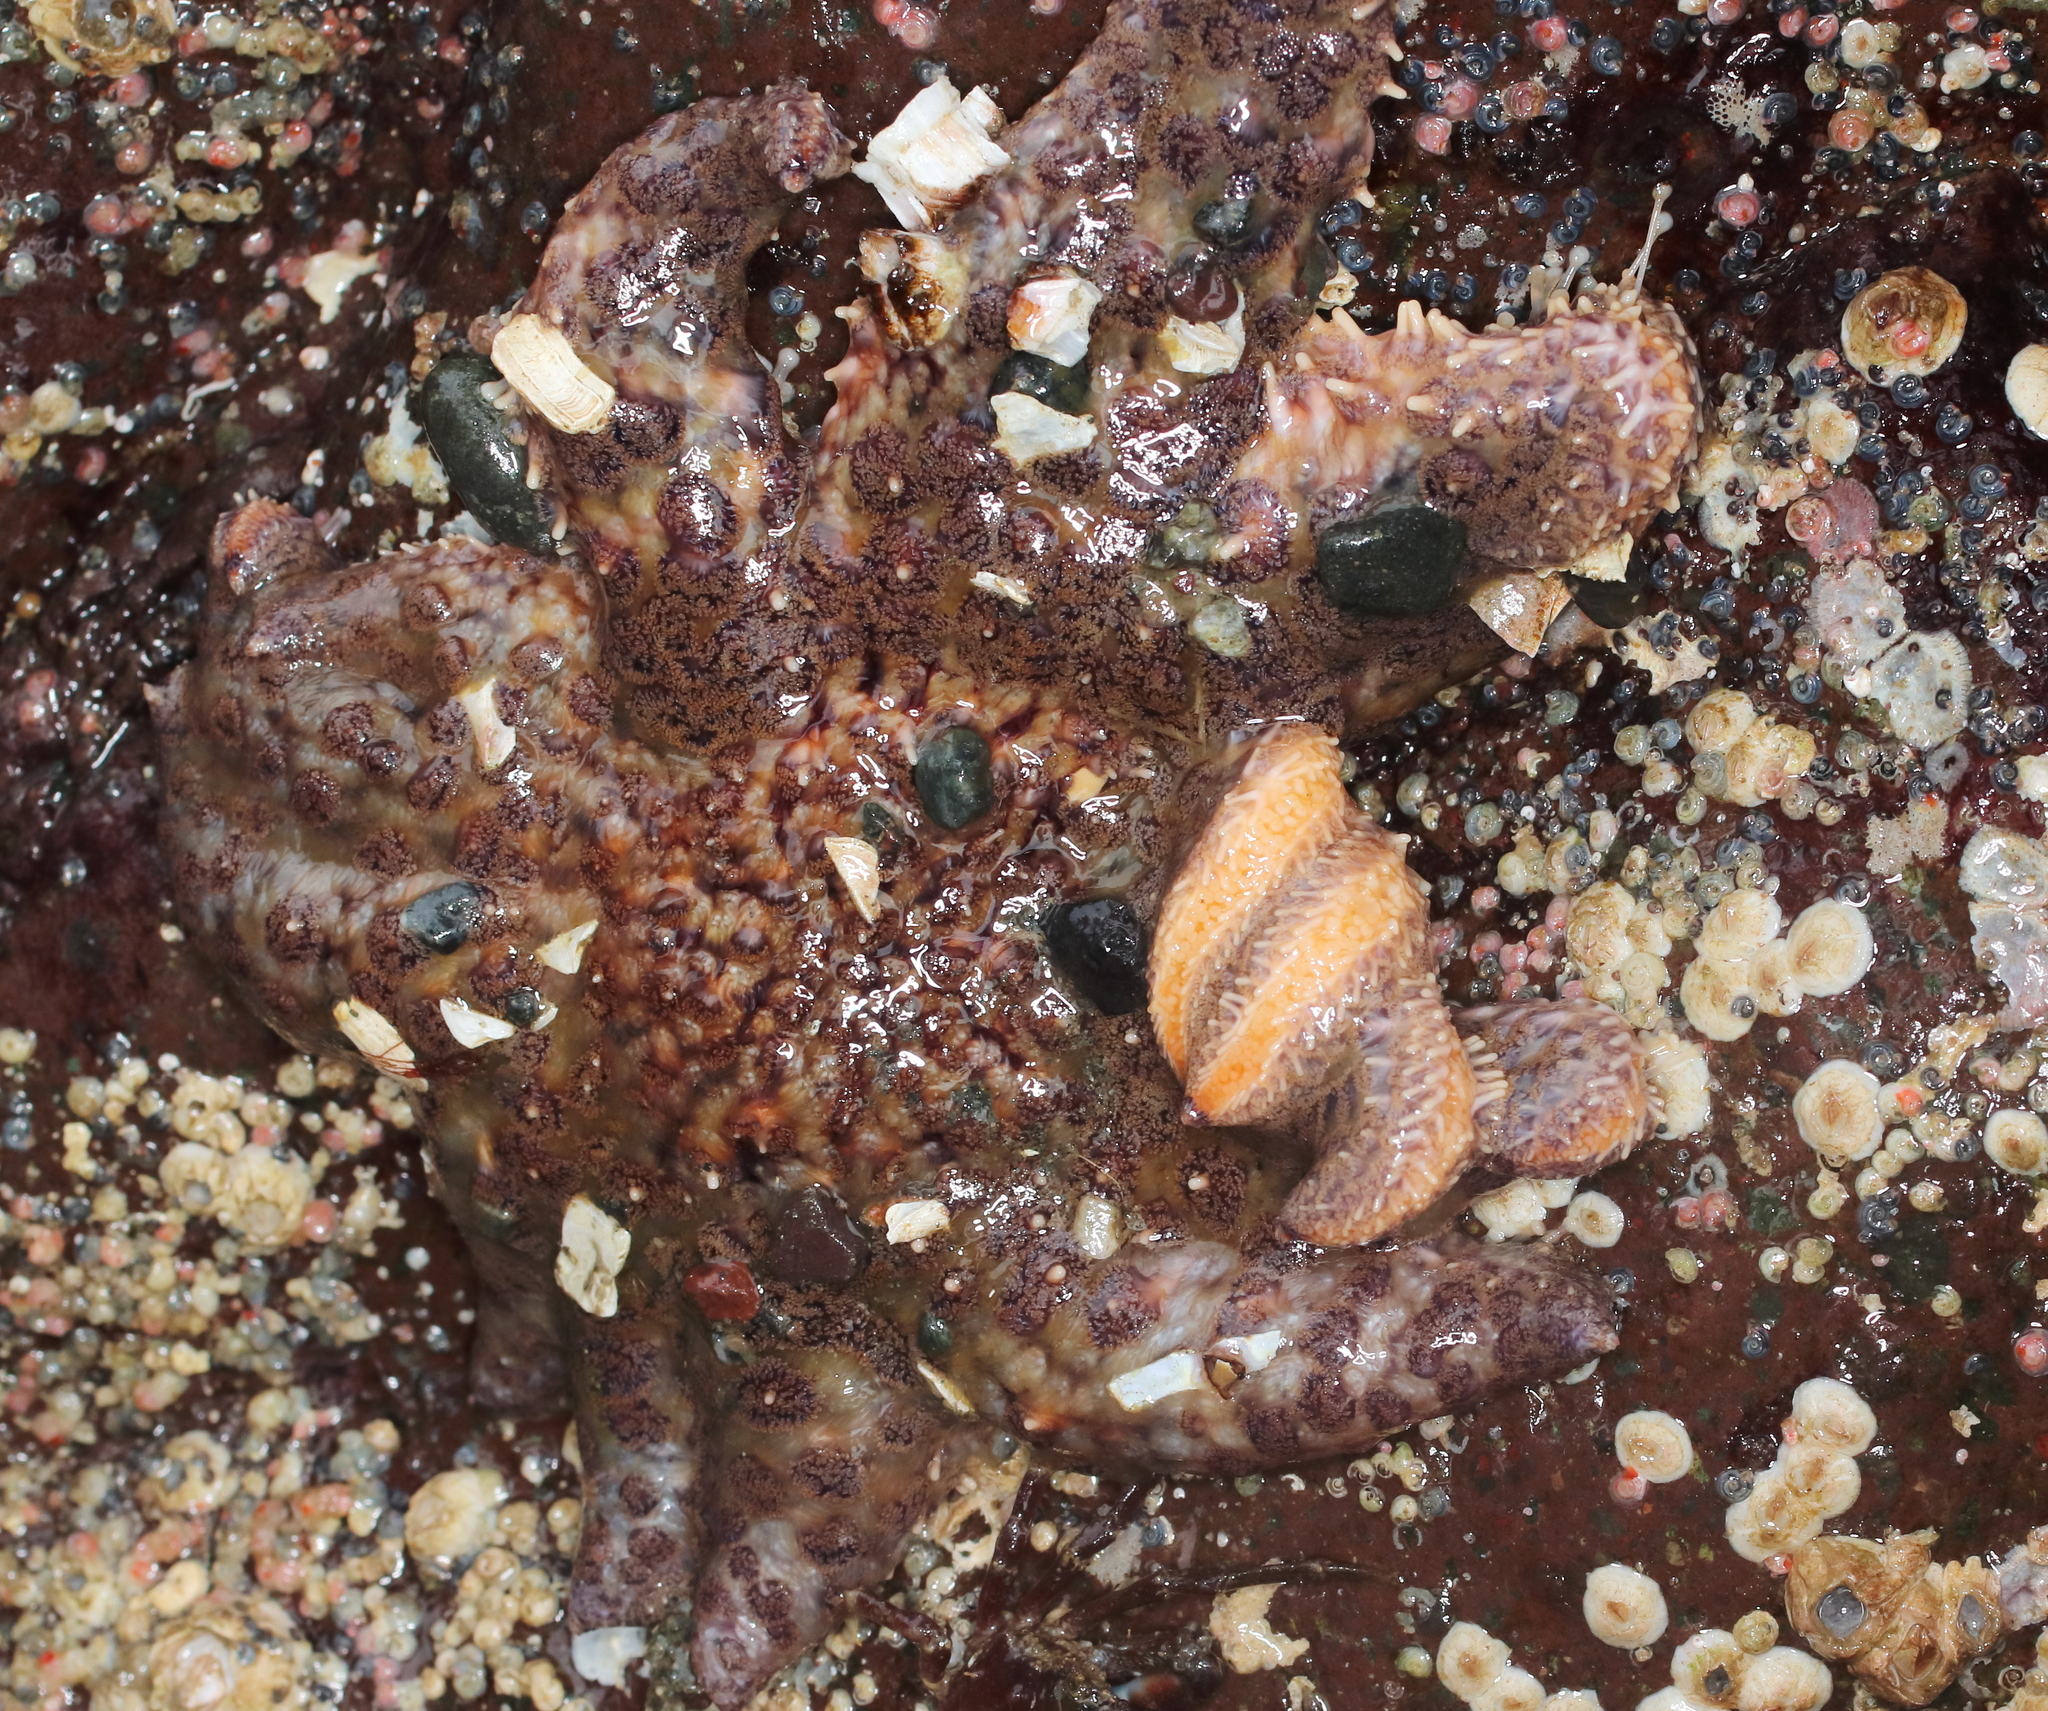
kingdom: Animalia
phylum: Echinodermata
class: Asteroidea
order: Forcipulatida
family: Asteriidae
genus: Pycnopodia
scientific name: Pycnopodia helianthoides
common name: Rag mop
